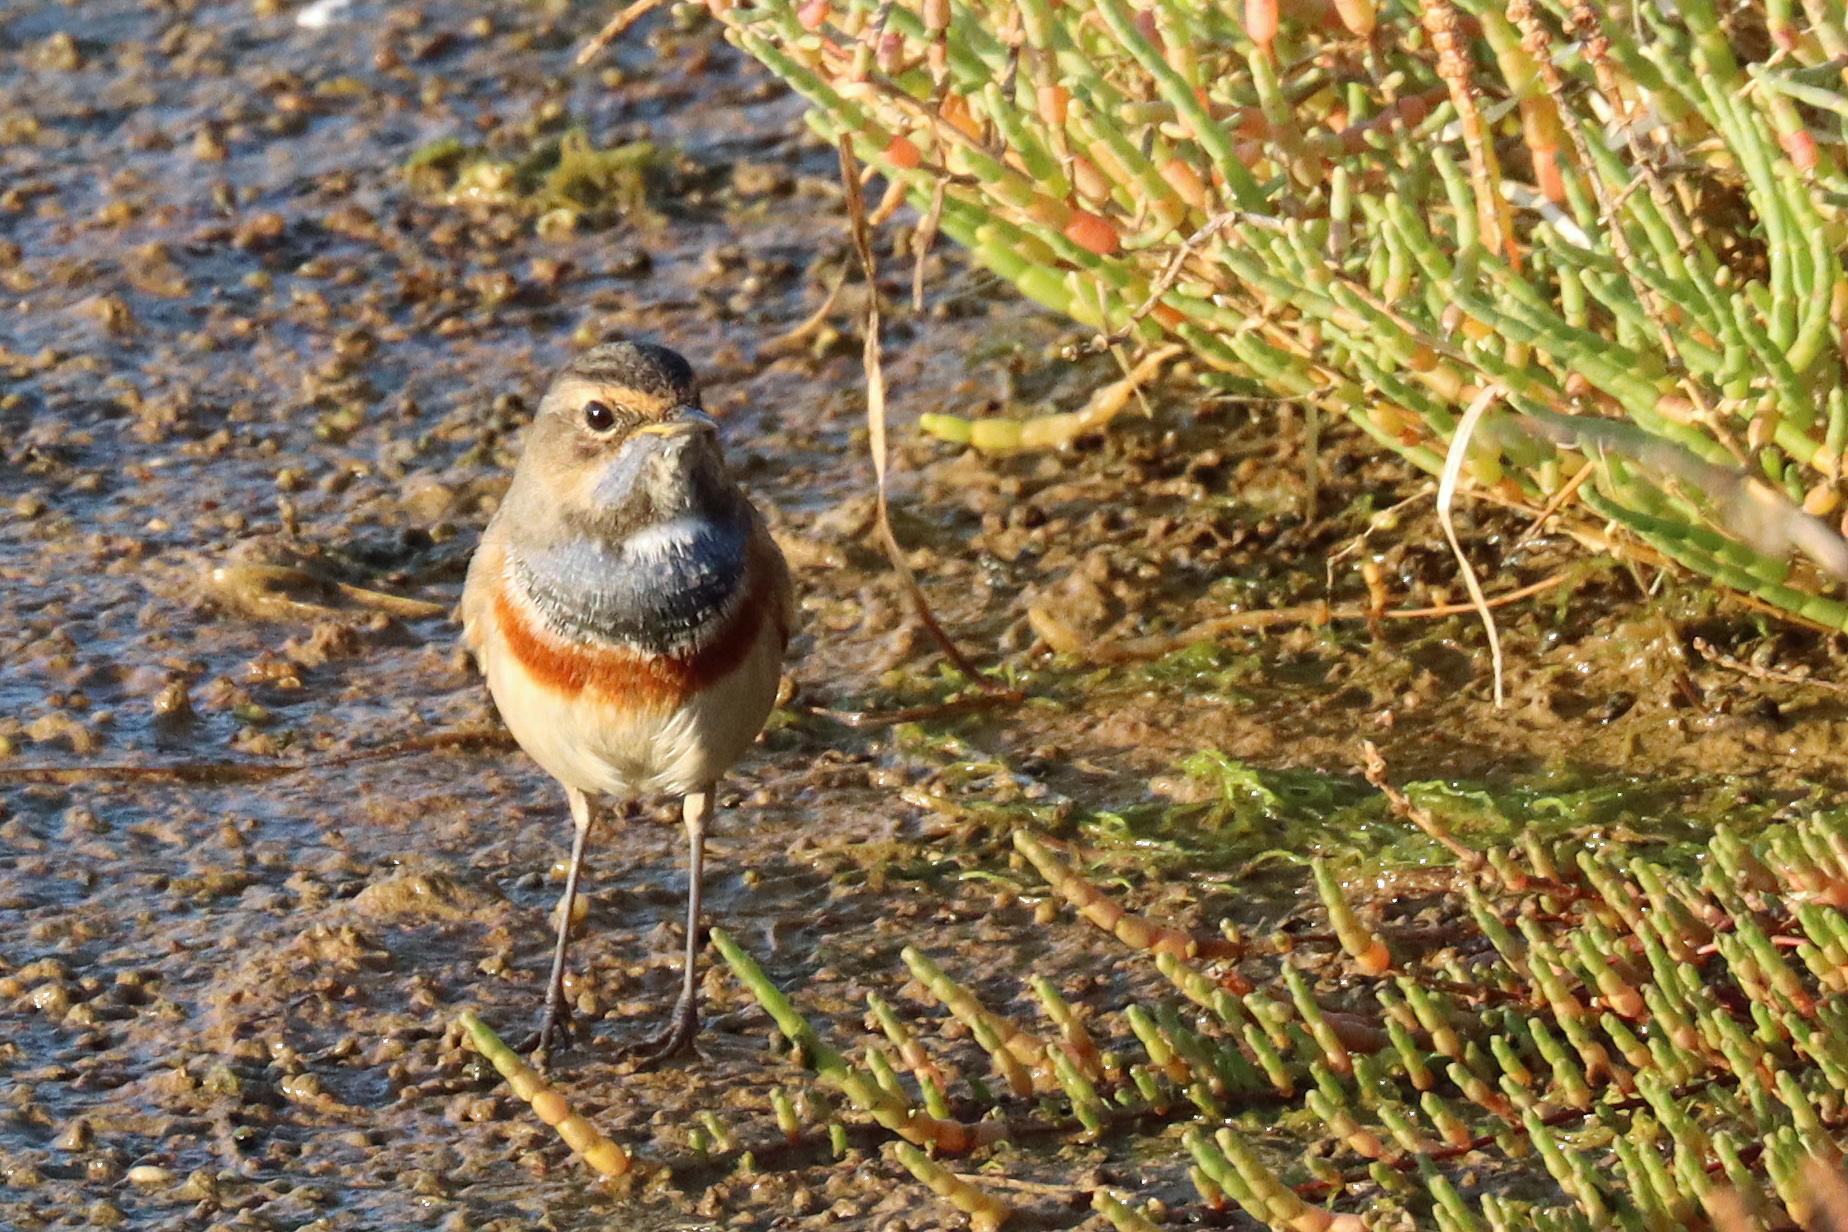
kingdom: Animalia
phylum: Chordata
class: Aves
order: Passeriformes
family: Muscicapidae
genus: Luscinia
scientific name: Luscinia svecica
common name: Bluethroat
